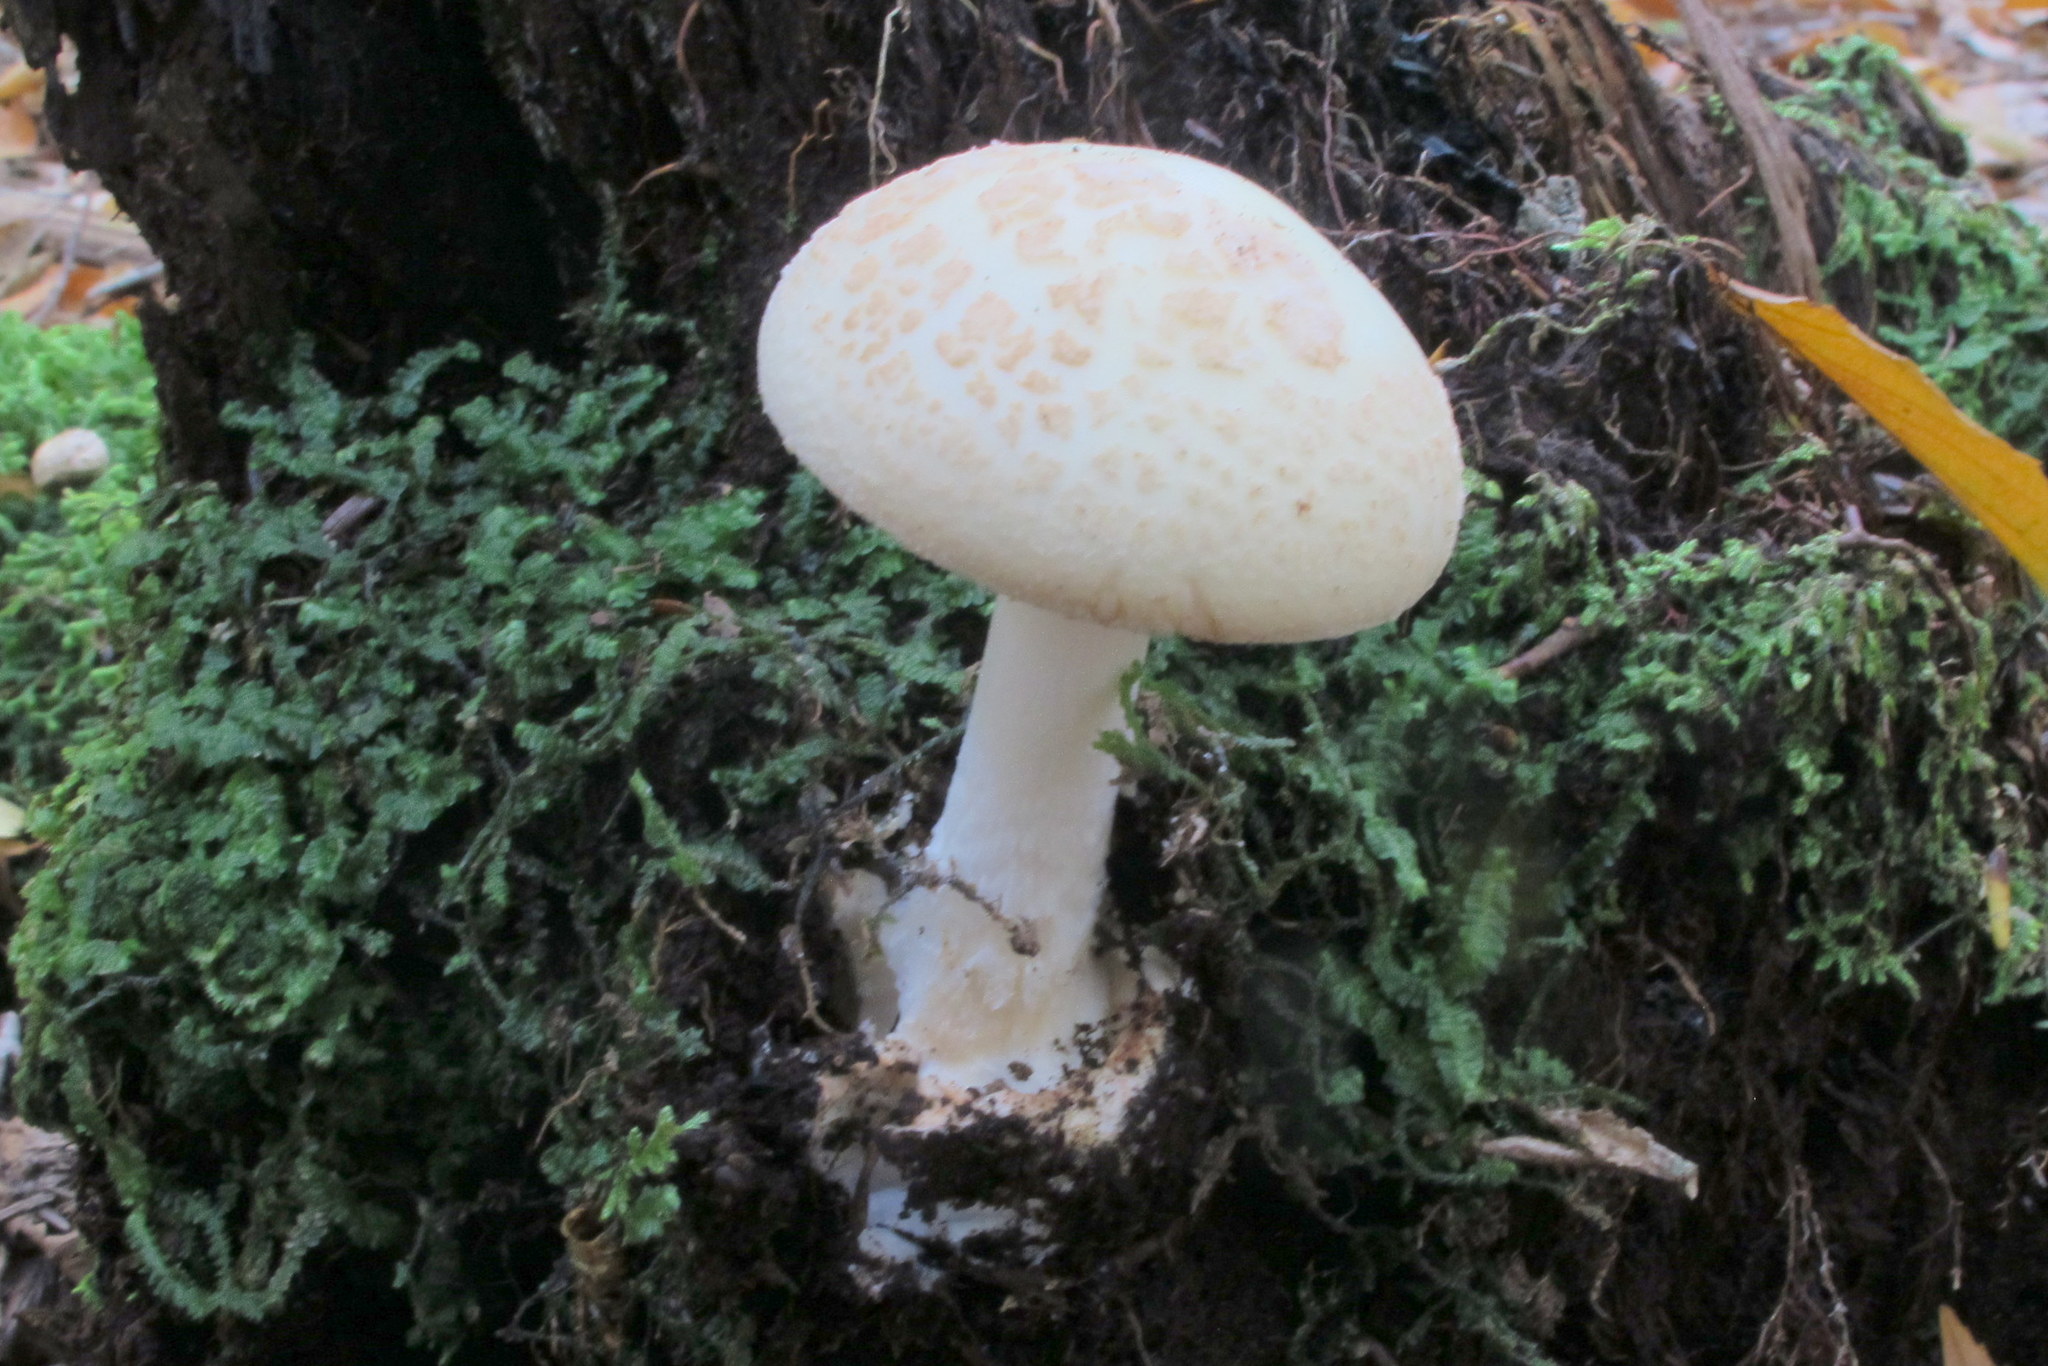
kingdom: Fungi
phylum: Basidiomycota
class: Agaricomycetes
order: Agaricales
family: Amanitaceae
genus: Amanita
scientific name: Amanita citrina
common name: False death-cap
